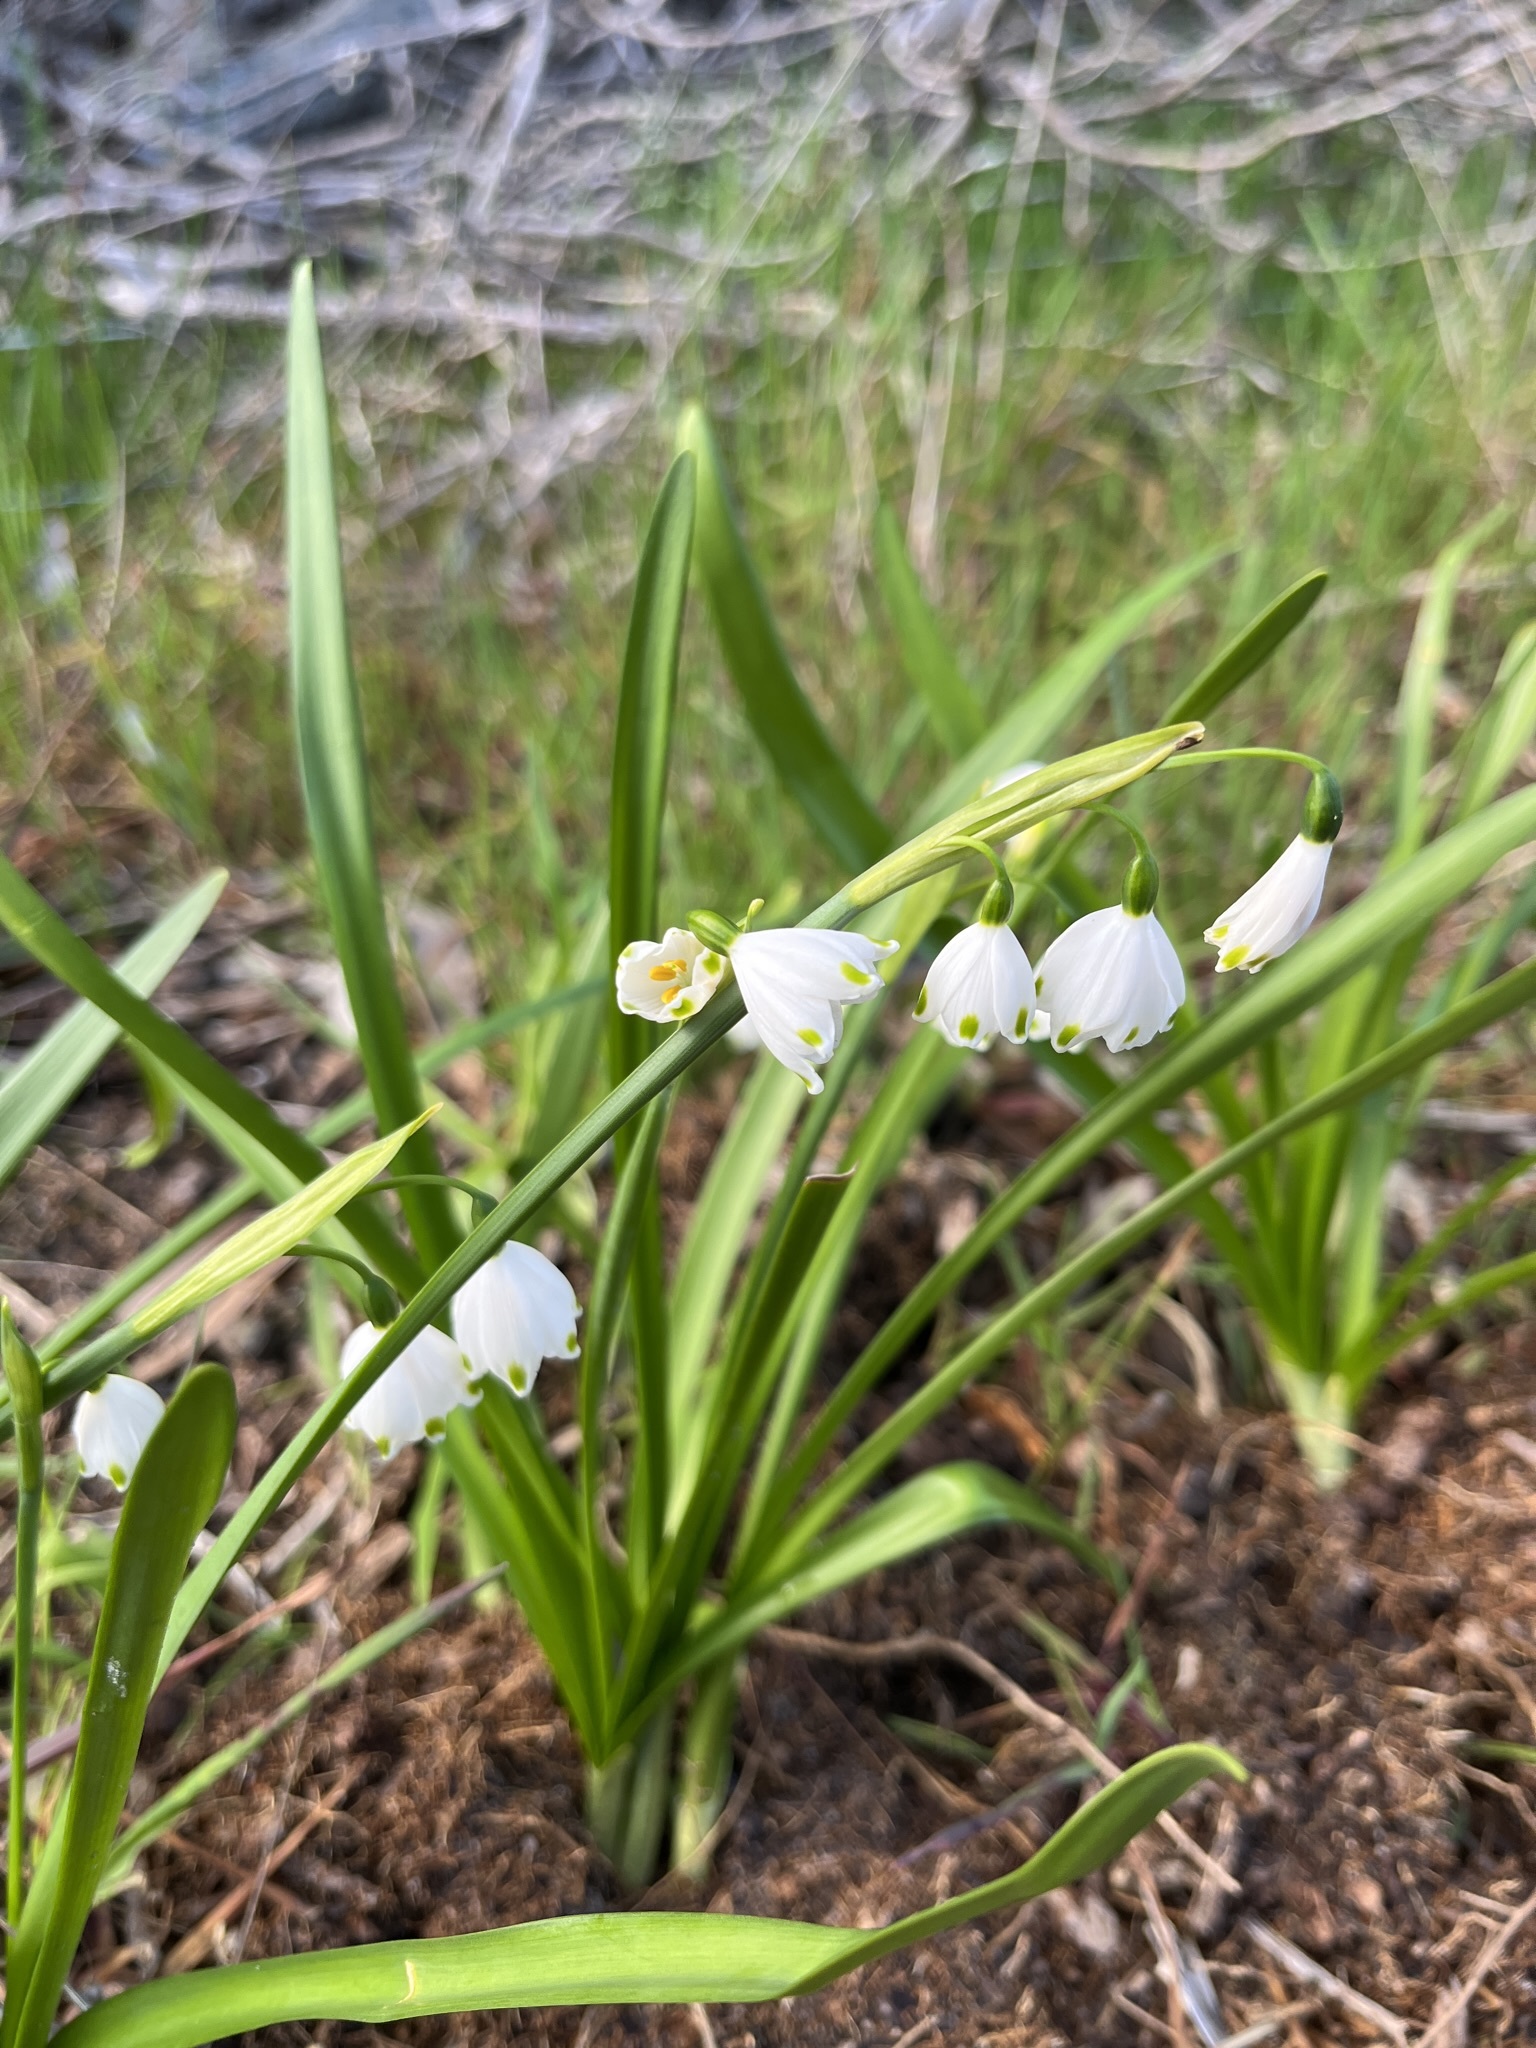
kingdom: Plantae
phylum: Tracheophyta
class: Liliopsida
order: Asparagales
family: Amaryllidaceae
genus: Leucojum
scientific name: Leucojum aestivum
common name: Summer snowflake
